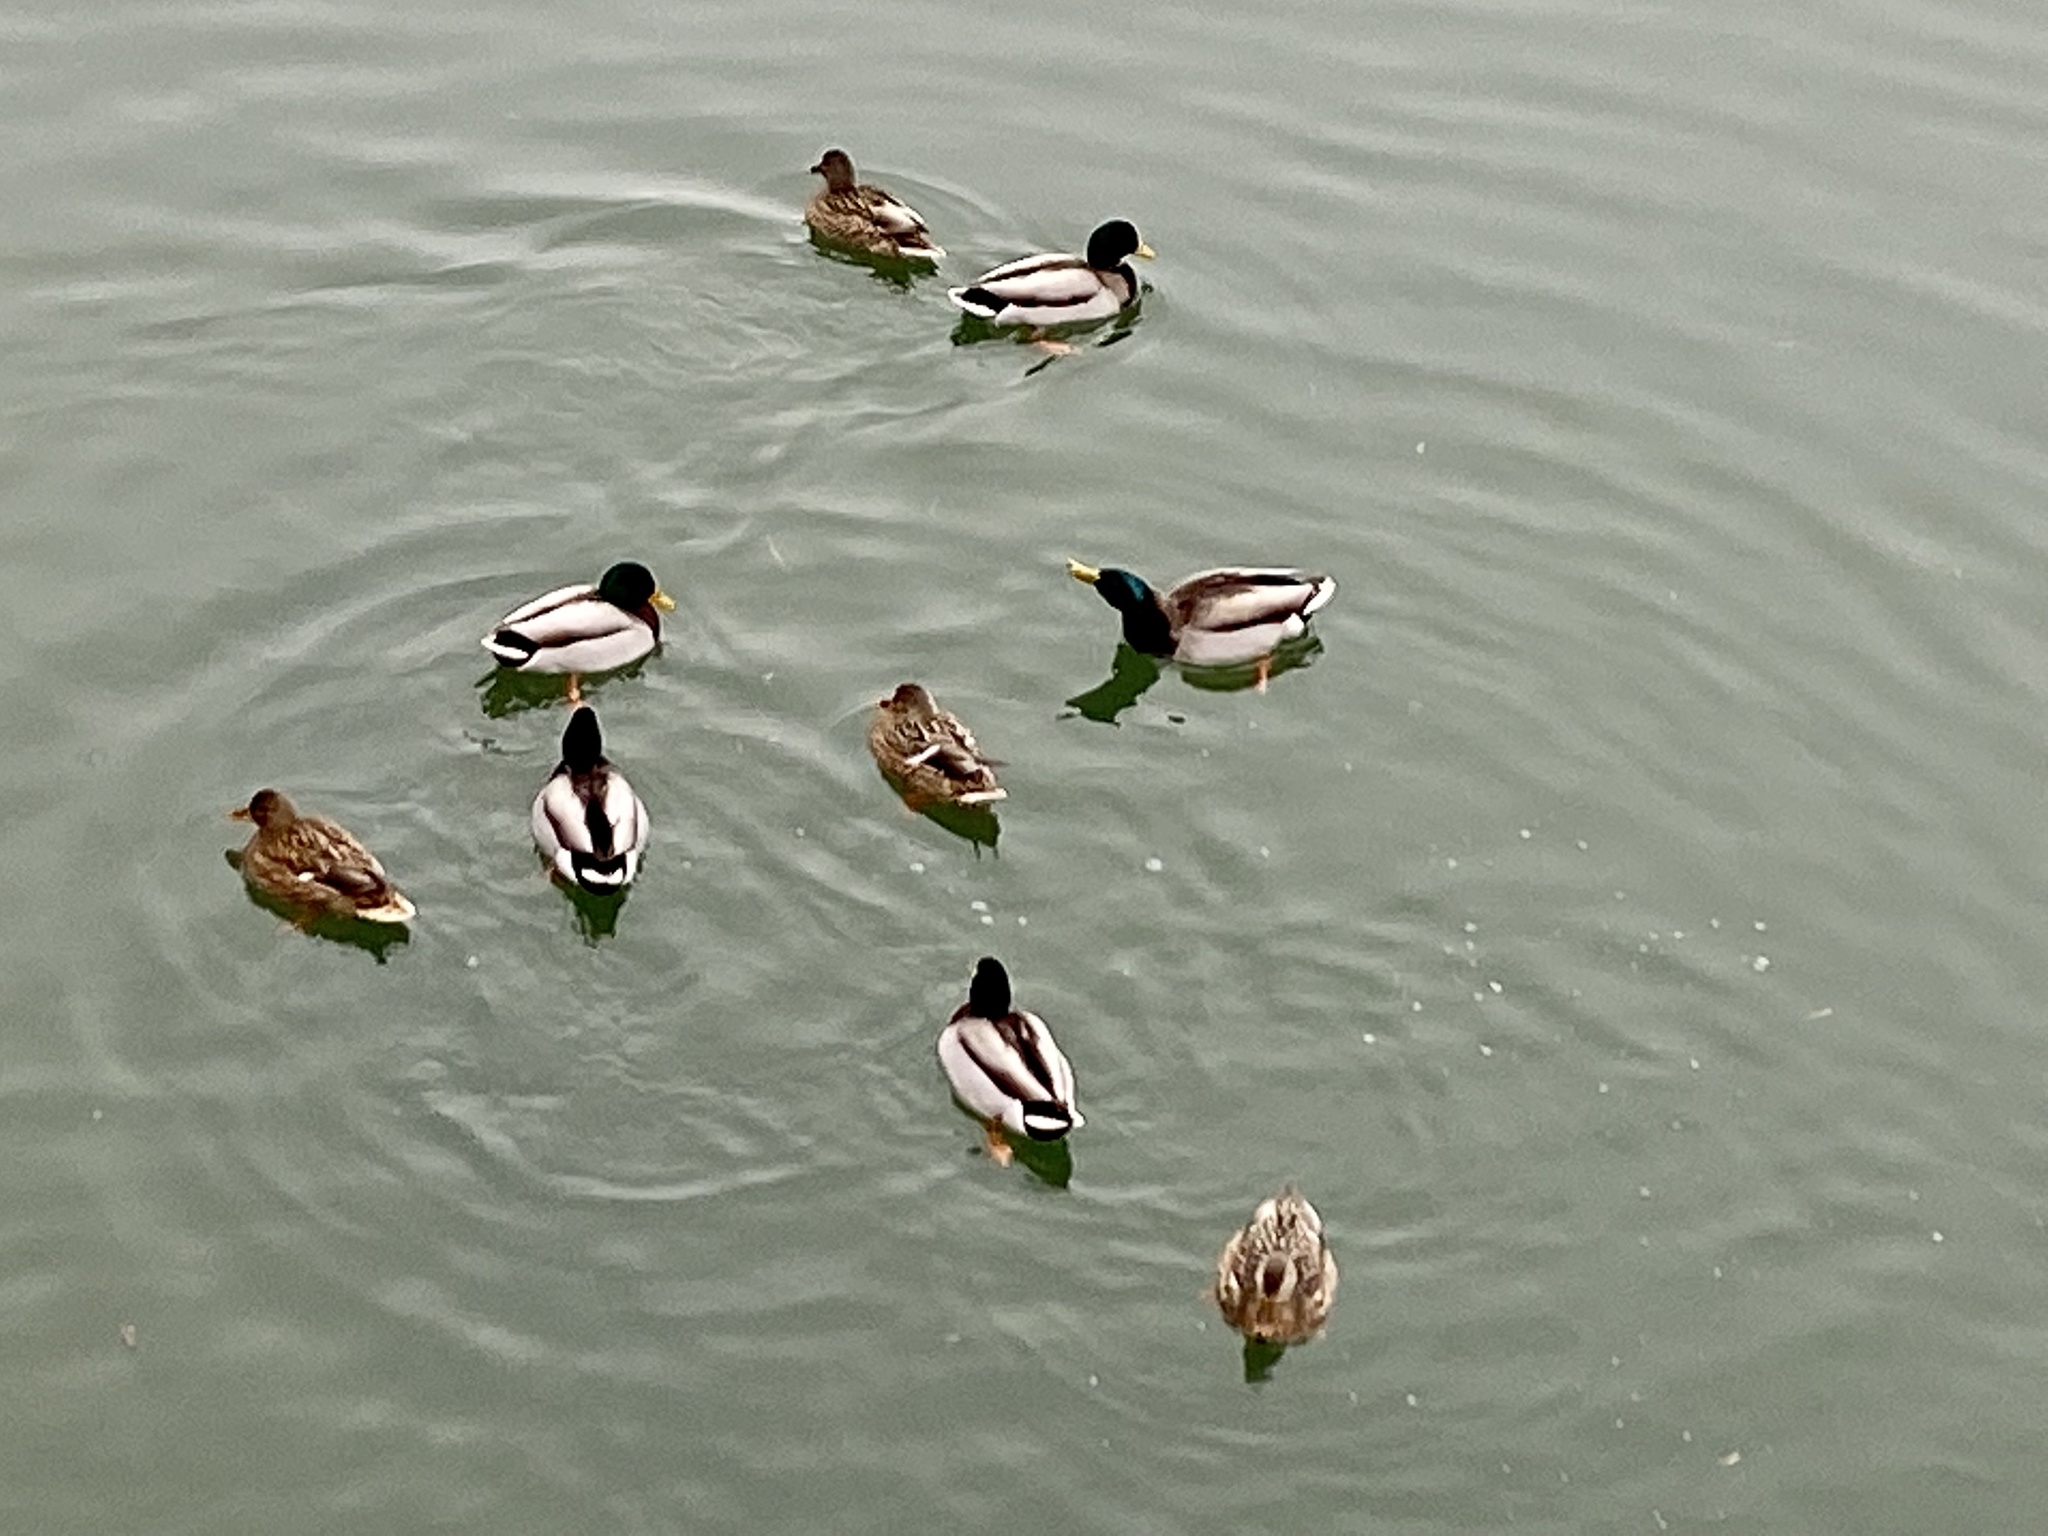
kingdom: Animalia
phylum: Chordata
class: Aves
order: Anseriformes
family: Anatidae
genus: Anas
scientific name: Anas platyrhynchos
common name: Mallard
